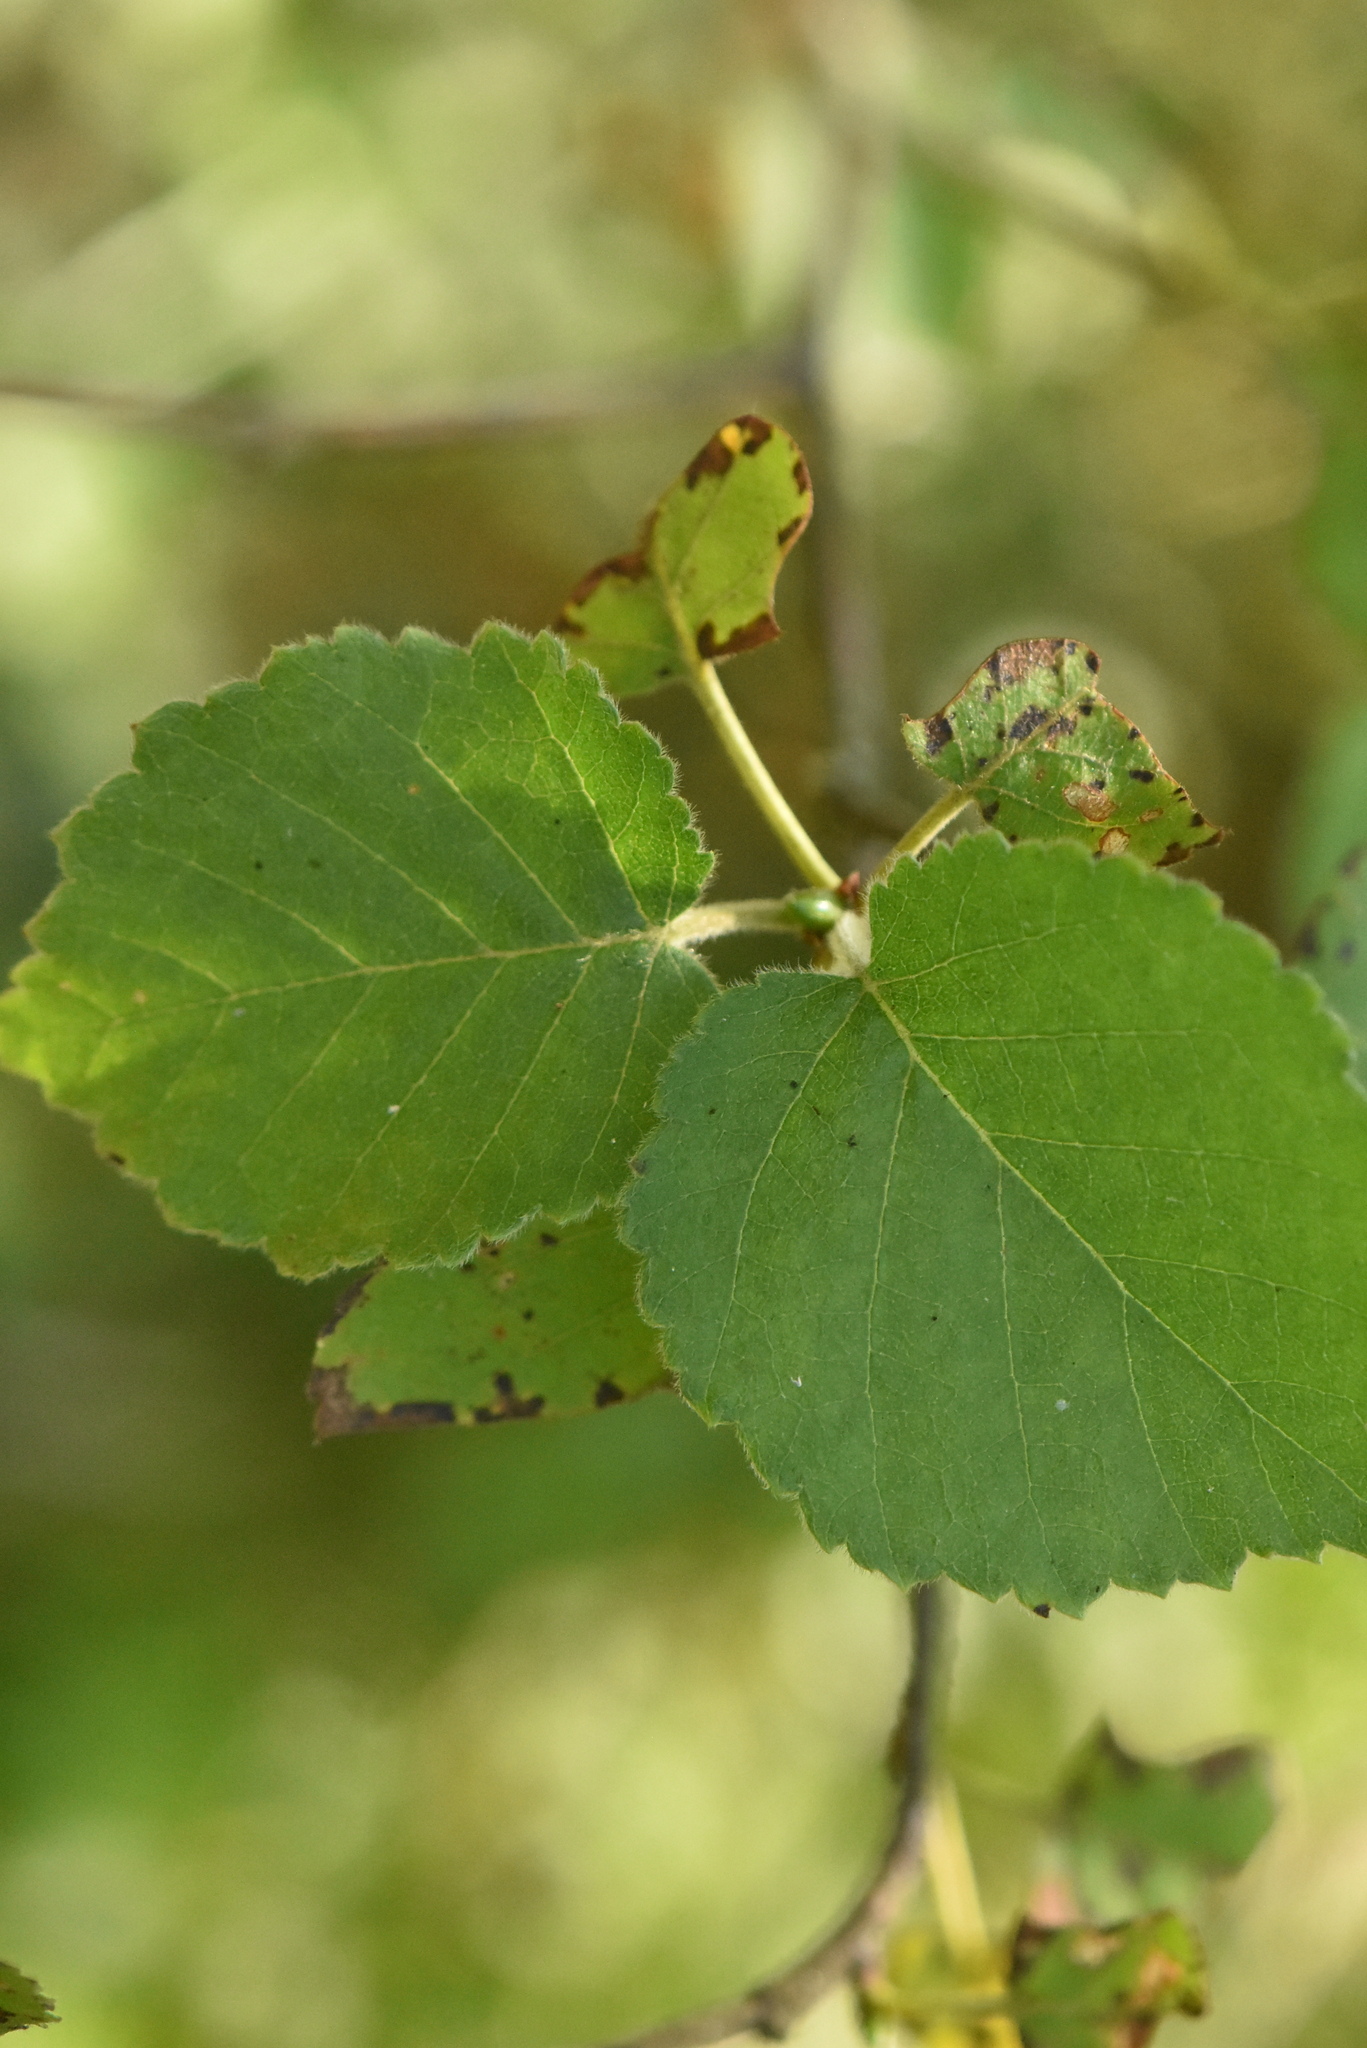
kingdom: Plantae
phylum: Tracheophyta
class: Magnoliopsida
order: Fagales
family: Betulaceae
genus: Betula
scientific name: Betula pubescens
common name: Downy birch
